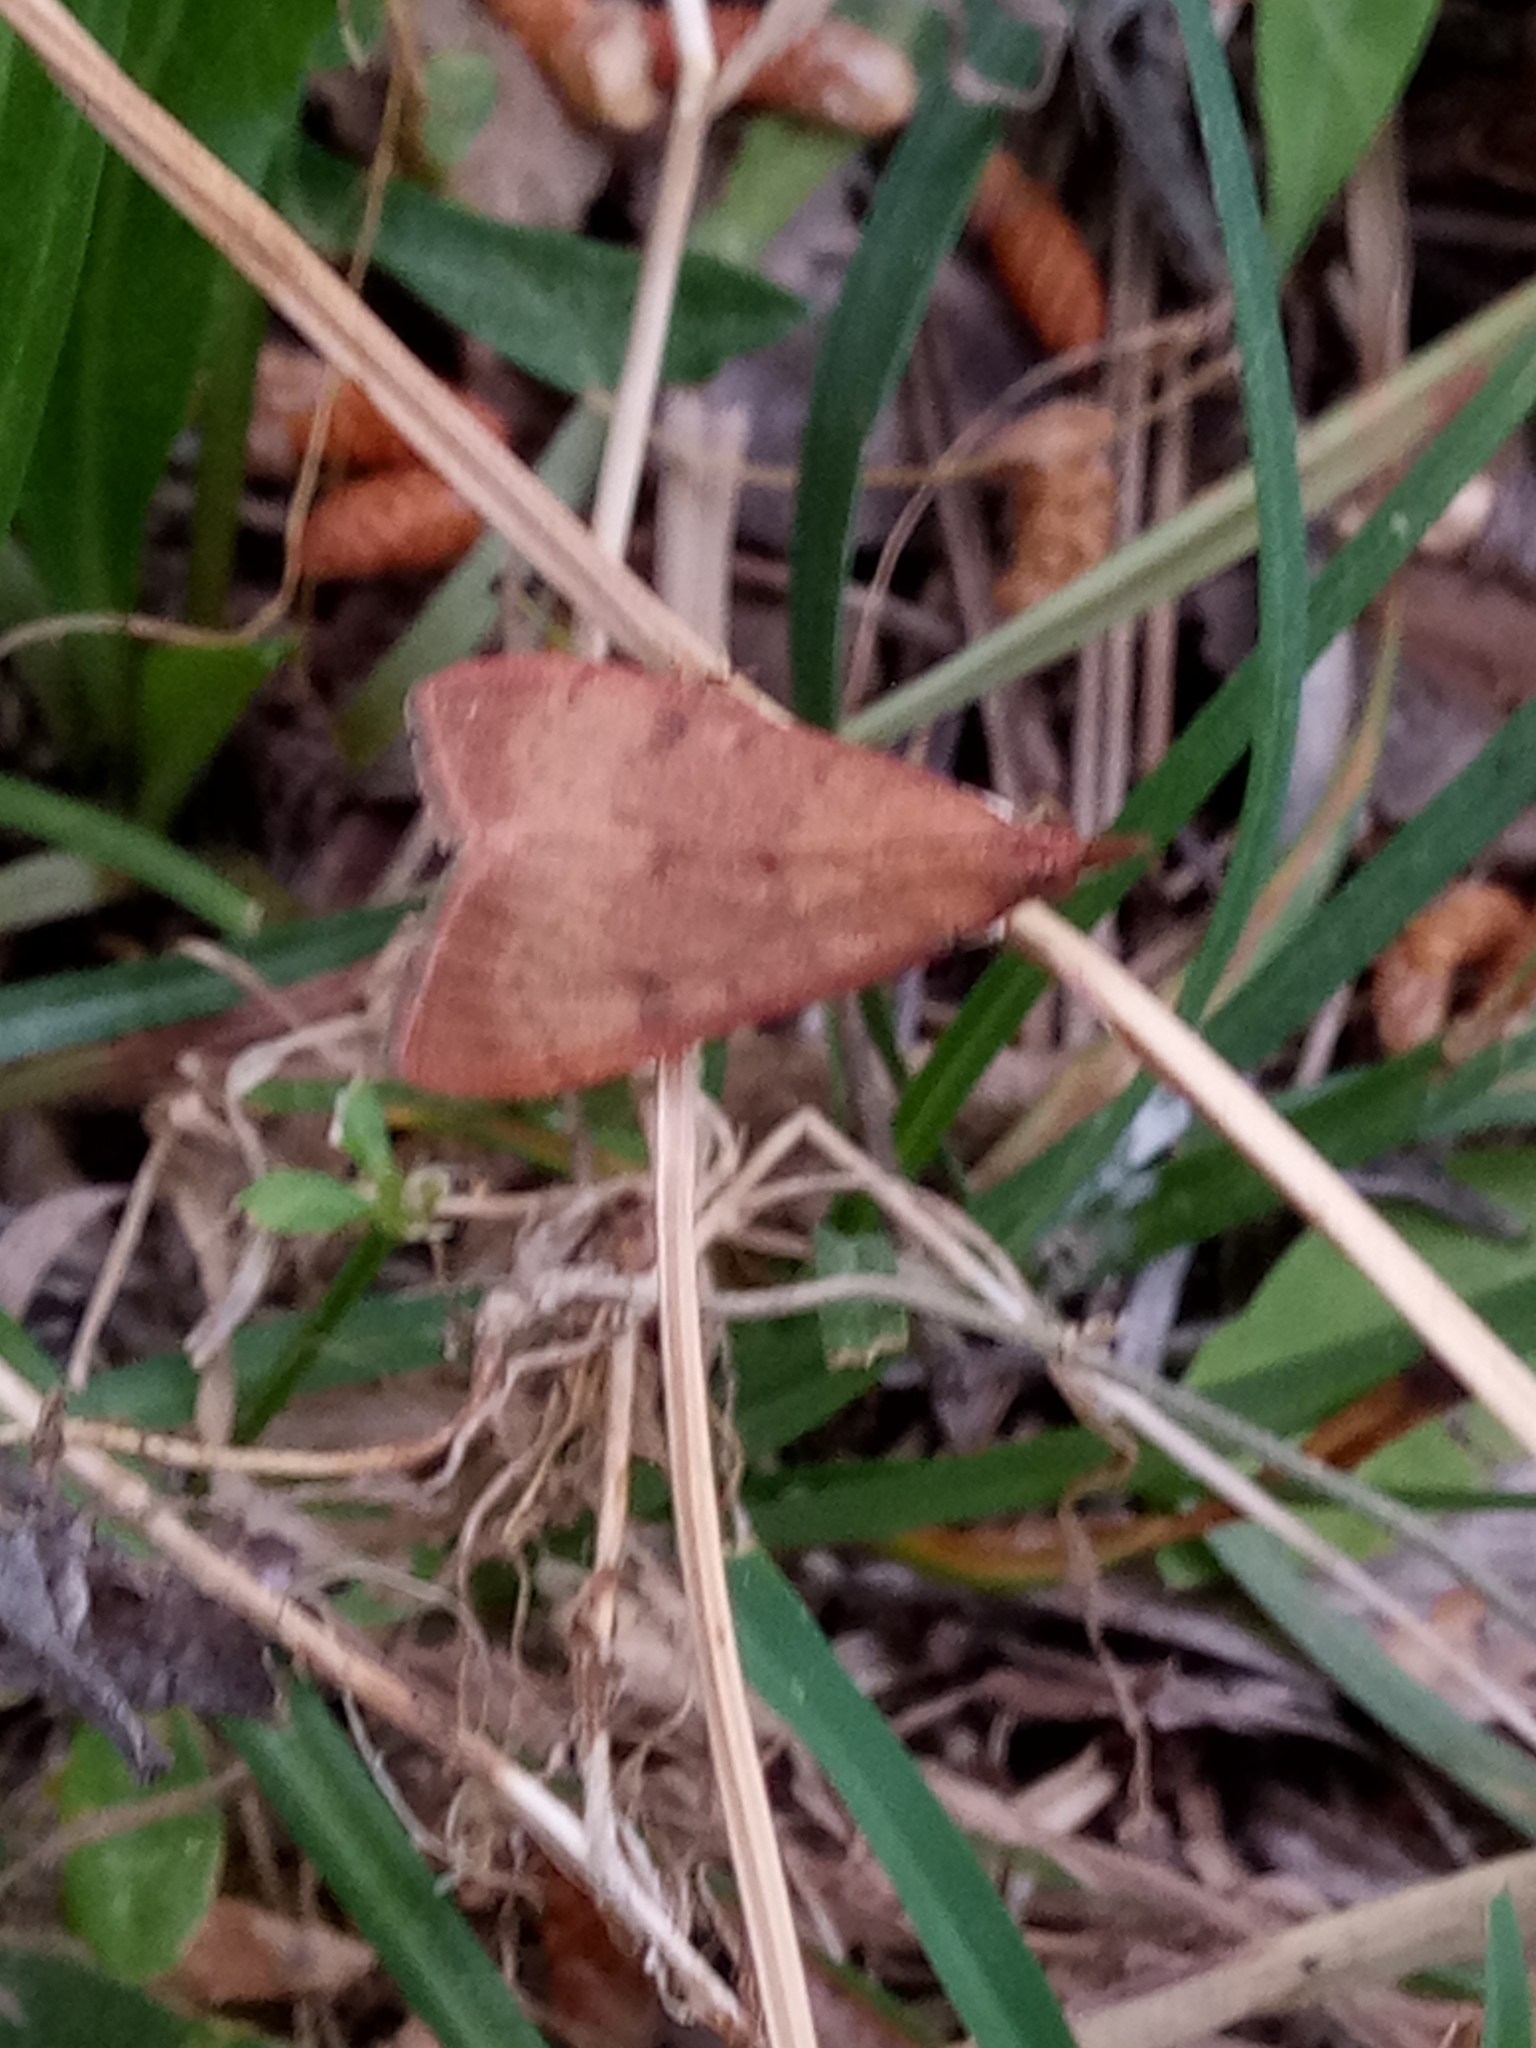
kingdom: Animalia
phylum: Arthropoda
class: Insecta
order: Lepidoptera
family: Crambidae
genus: Uresiphita
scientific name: Uresiphita gilvata
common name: Yellow-underwing pearl
